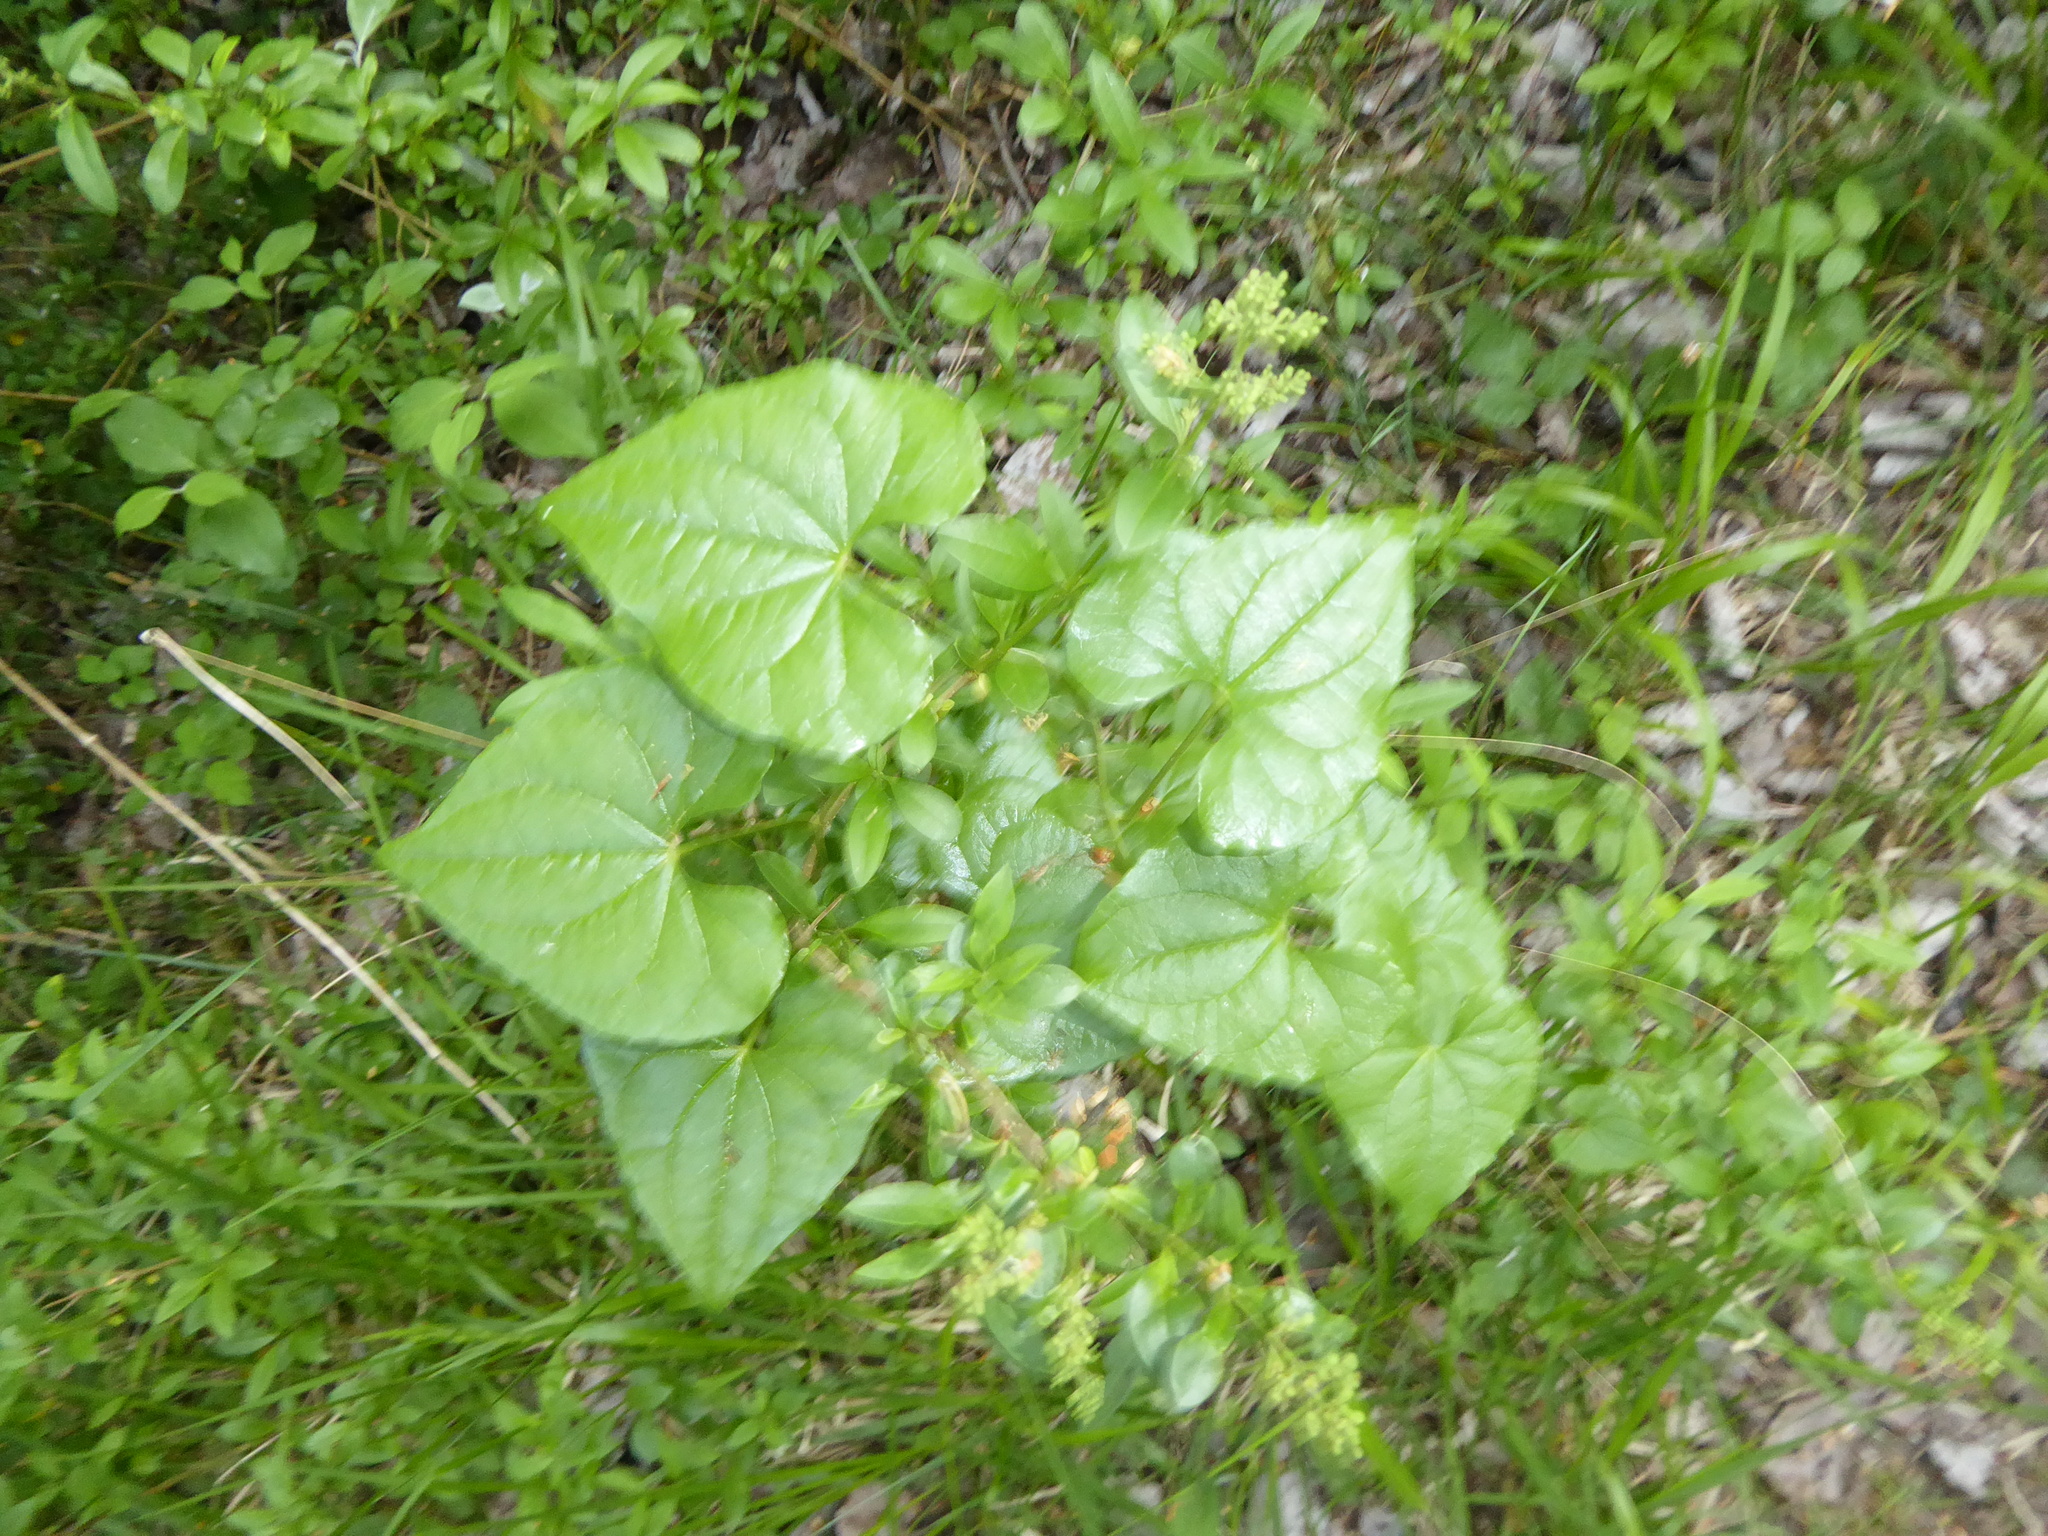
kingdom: Plantae
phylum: Tracheophyta
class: Liliopsida
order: Dioscoreales
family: Dioscoreaceae
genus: Dioscorea
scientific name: Dioscorea communis
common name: Black-bindweed
